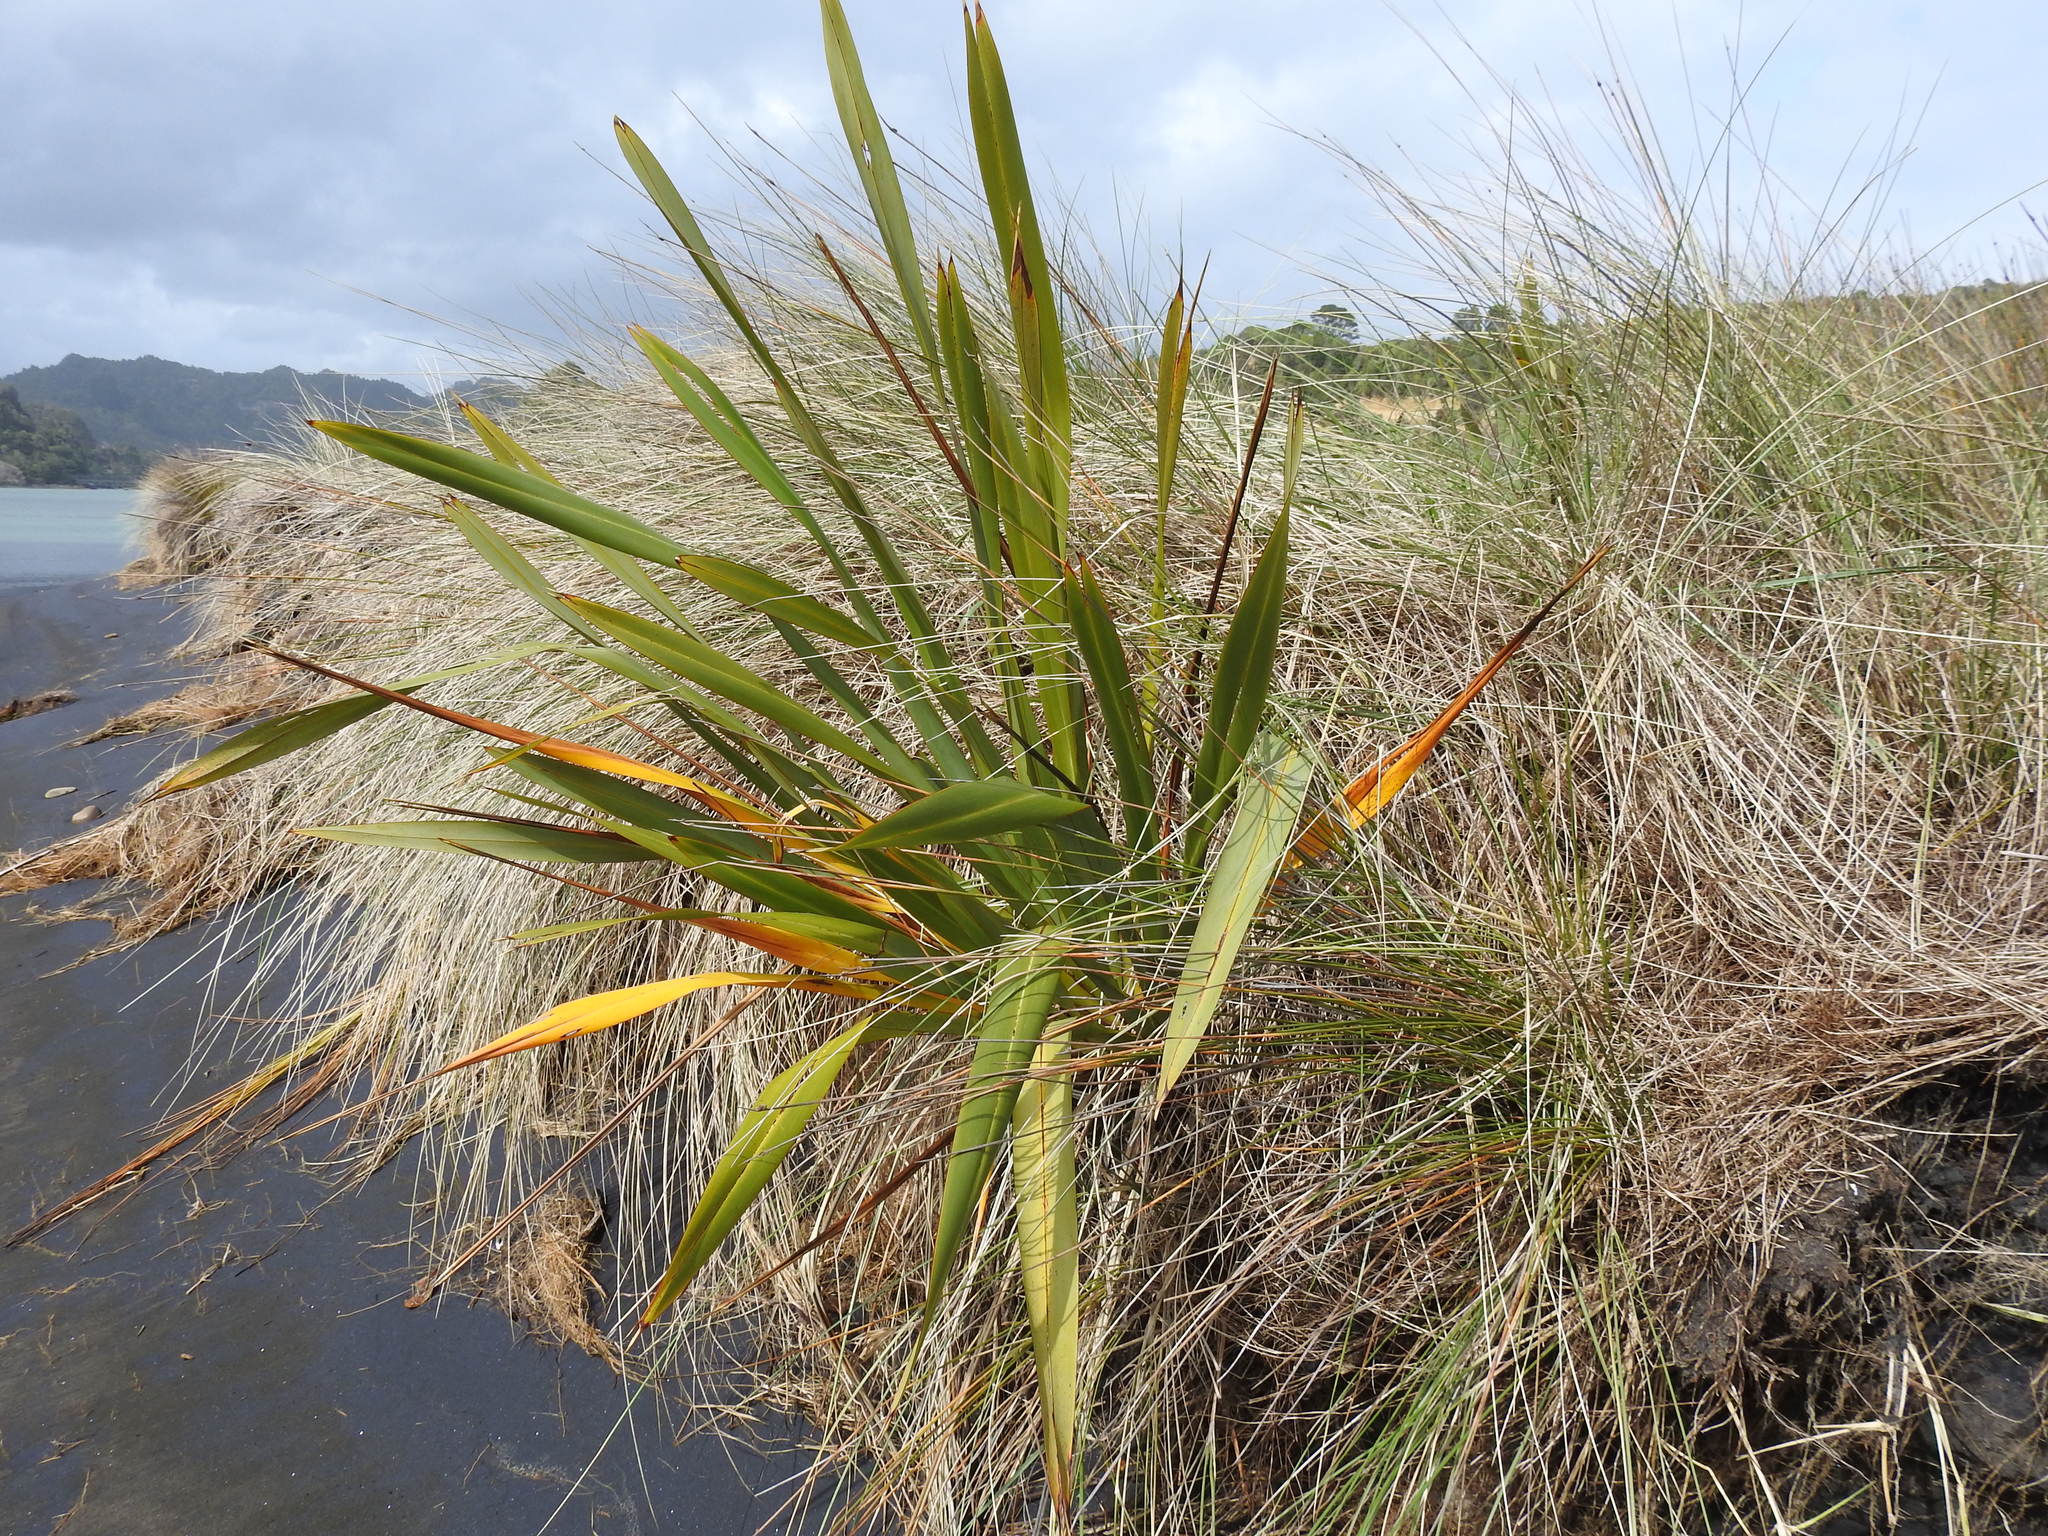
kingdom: Plantae
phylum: Tracheophyta
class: Liliopsida
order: Asparagales
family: Asphodelaceae
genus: Phormium
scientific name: Phormium tenax
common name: New zealand flax
